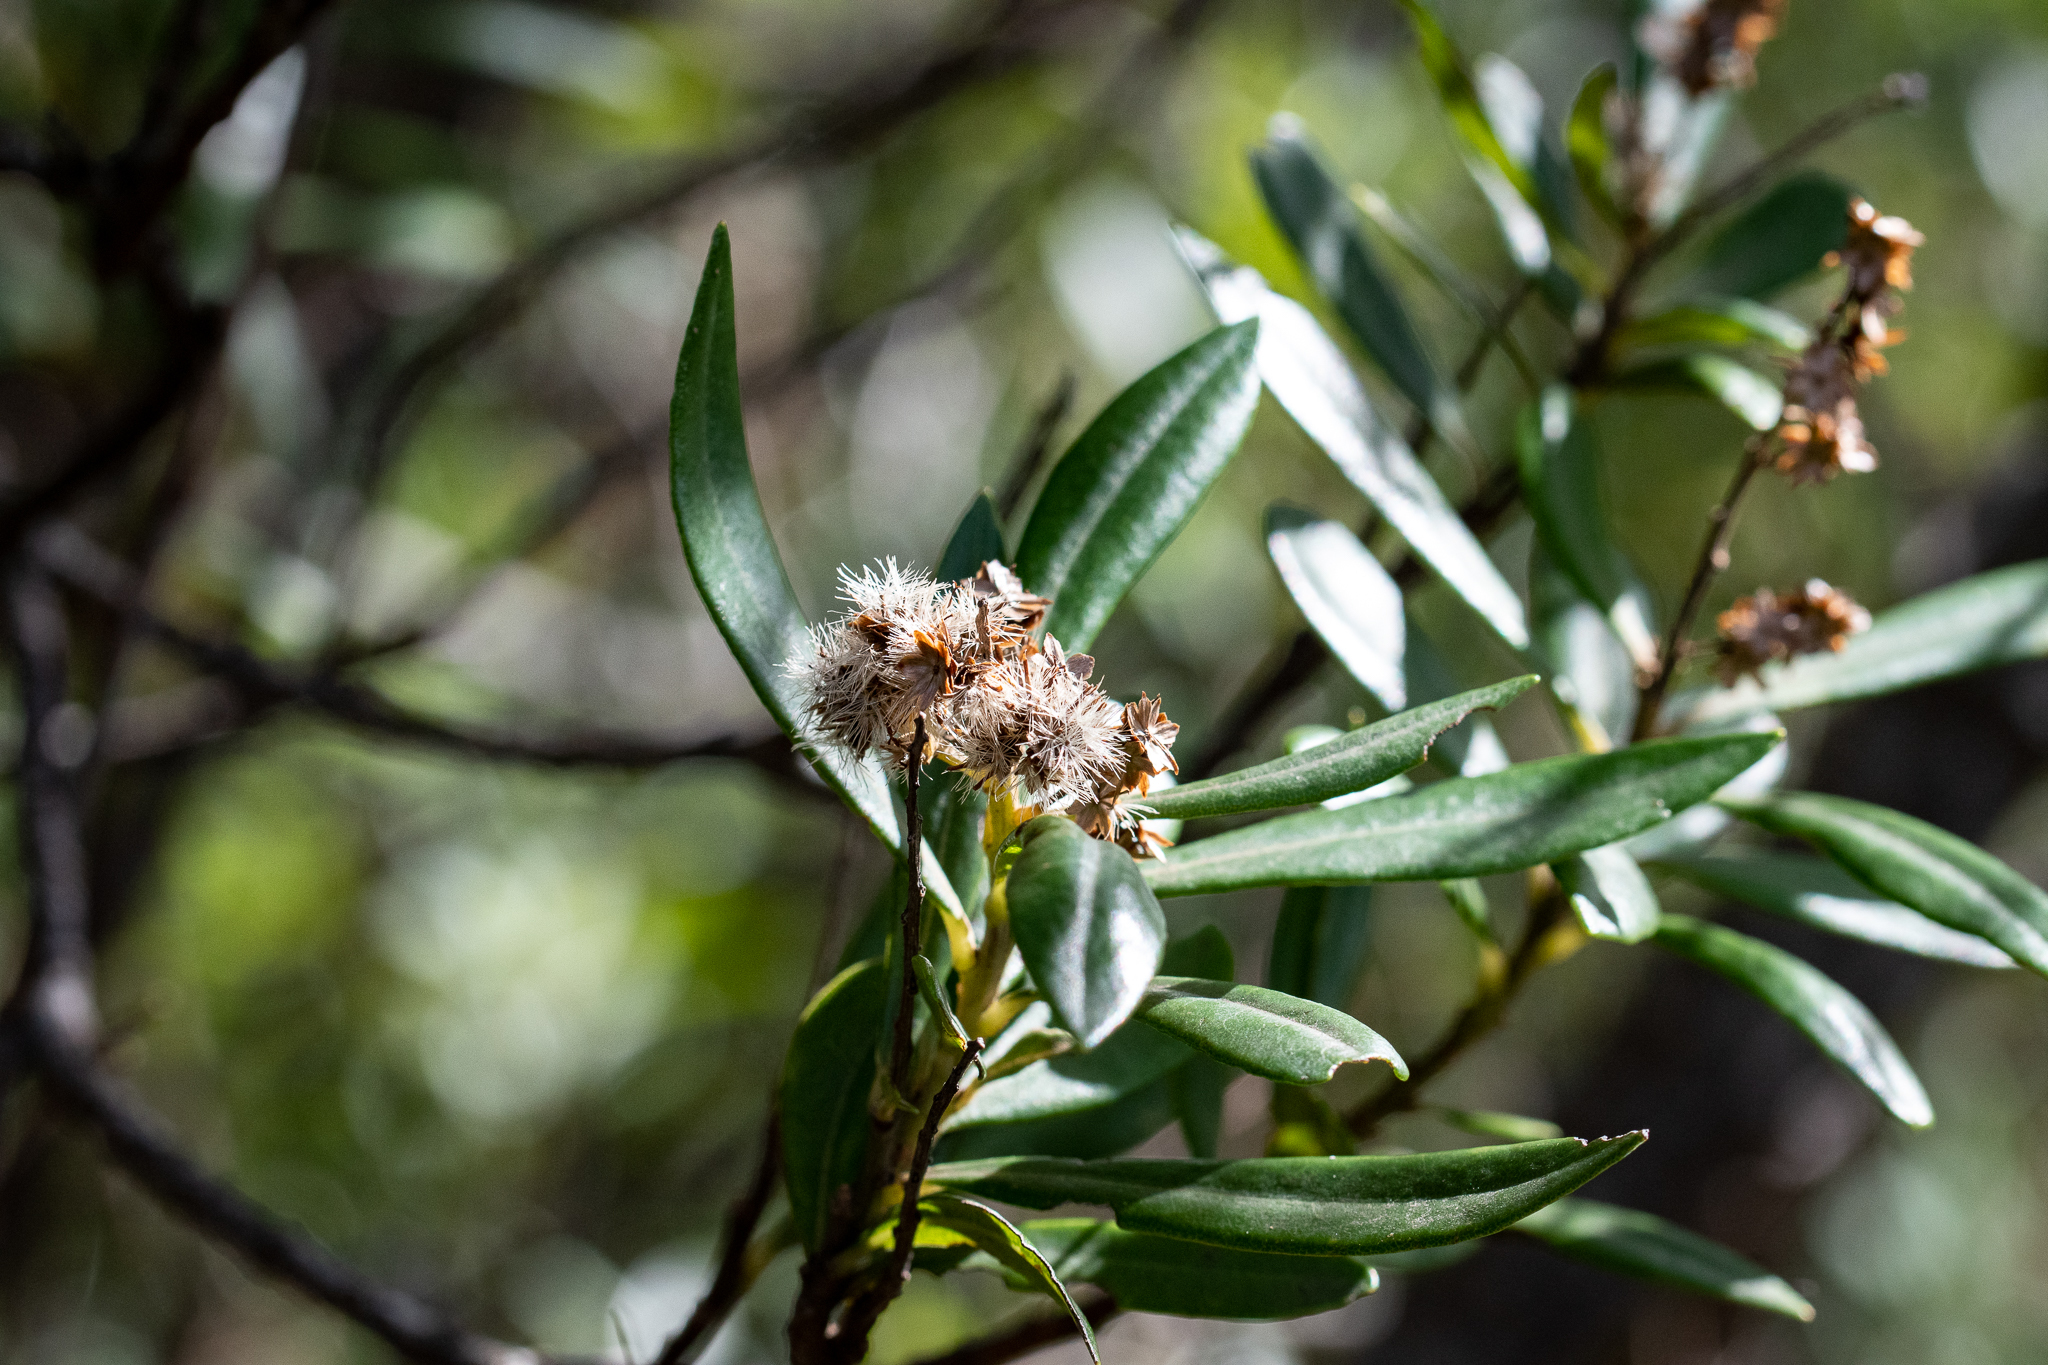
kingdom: Plantae
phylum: Tracheophyta
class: Magnoliopsida
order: Asterales
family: Asteraceae
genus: Brachylaena
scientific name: Brachylaena neriifolia
